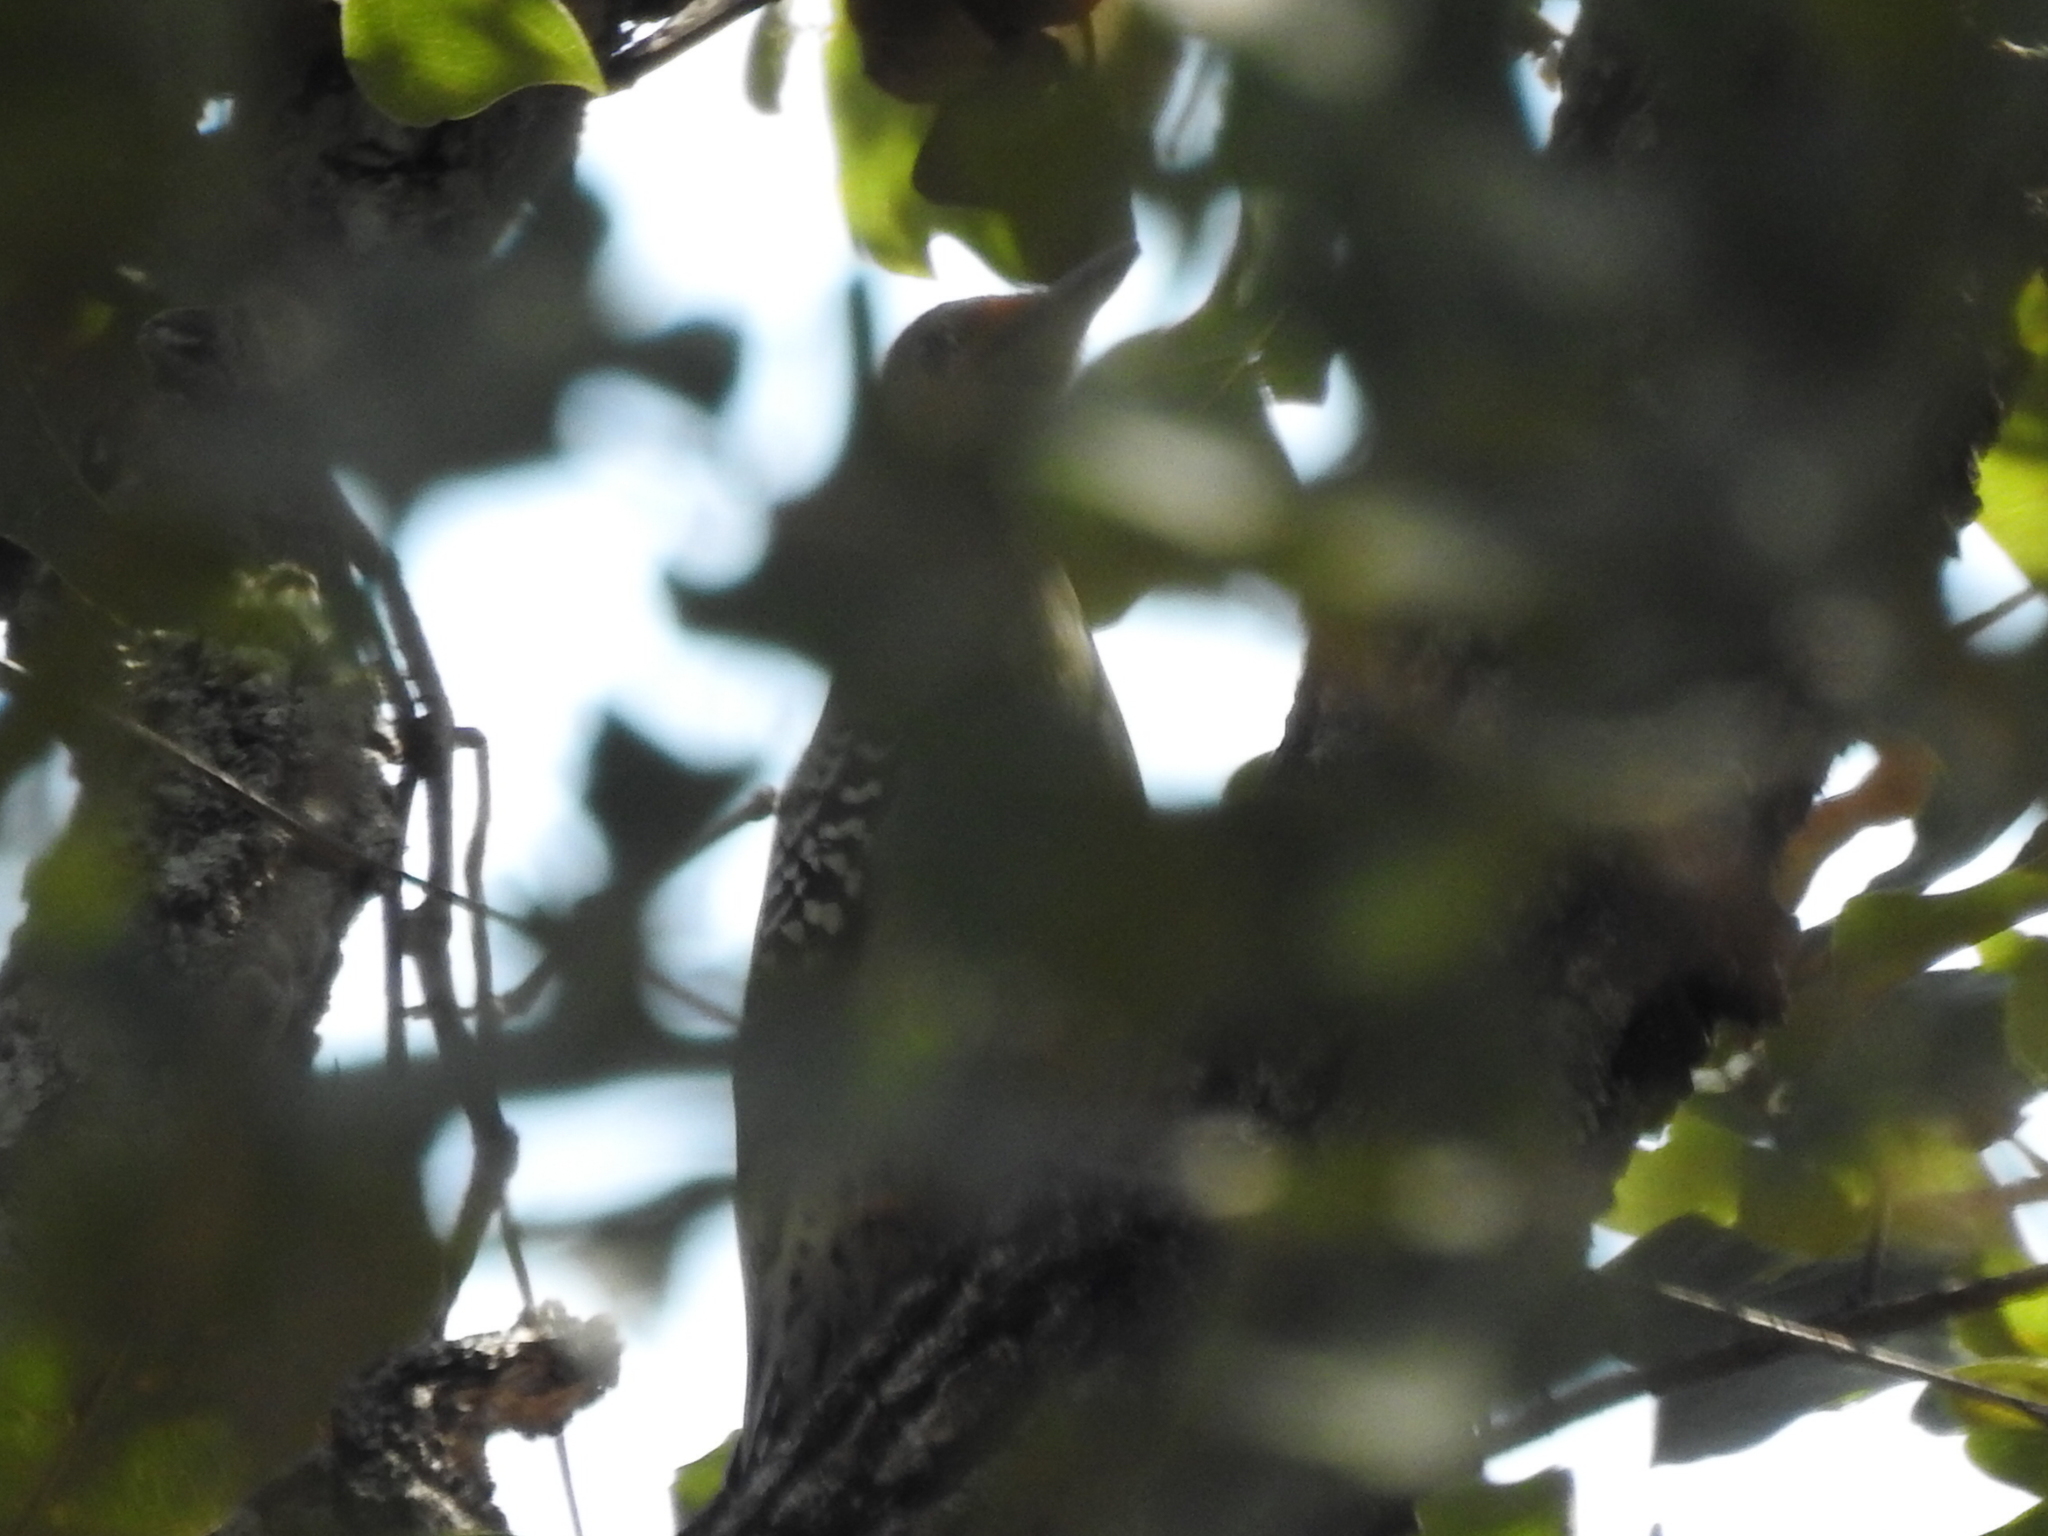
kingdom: Animalia
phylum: Chordata
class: Aves
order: Piciformes
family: Picidae
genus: Melanerpes
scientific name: Melanerpes carolinus
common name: Red-bellied woodpecker
